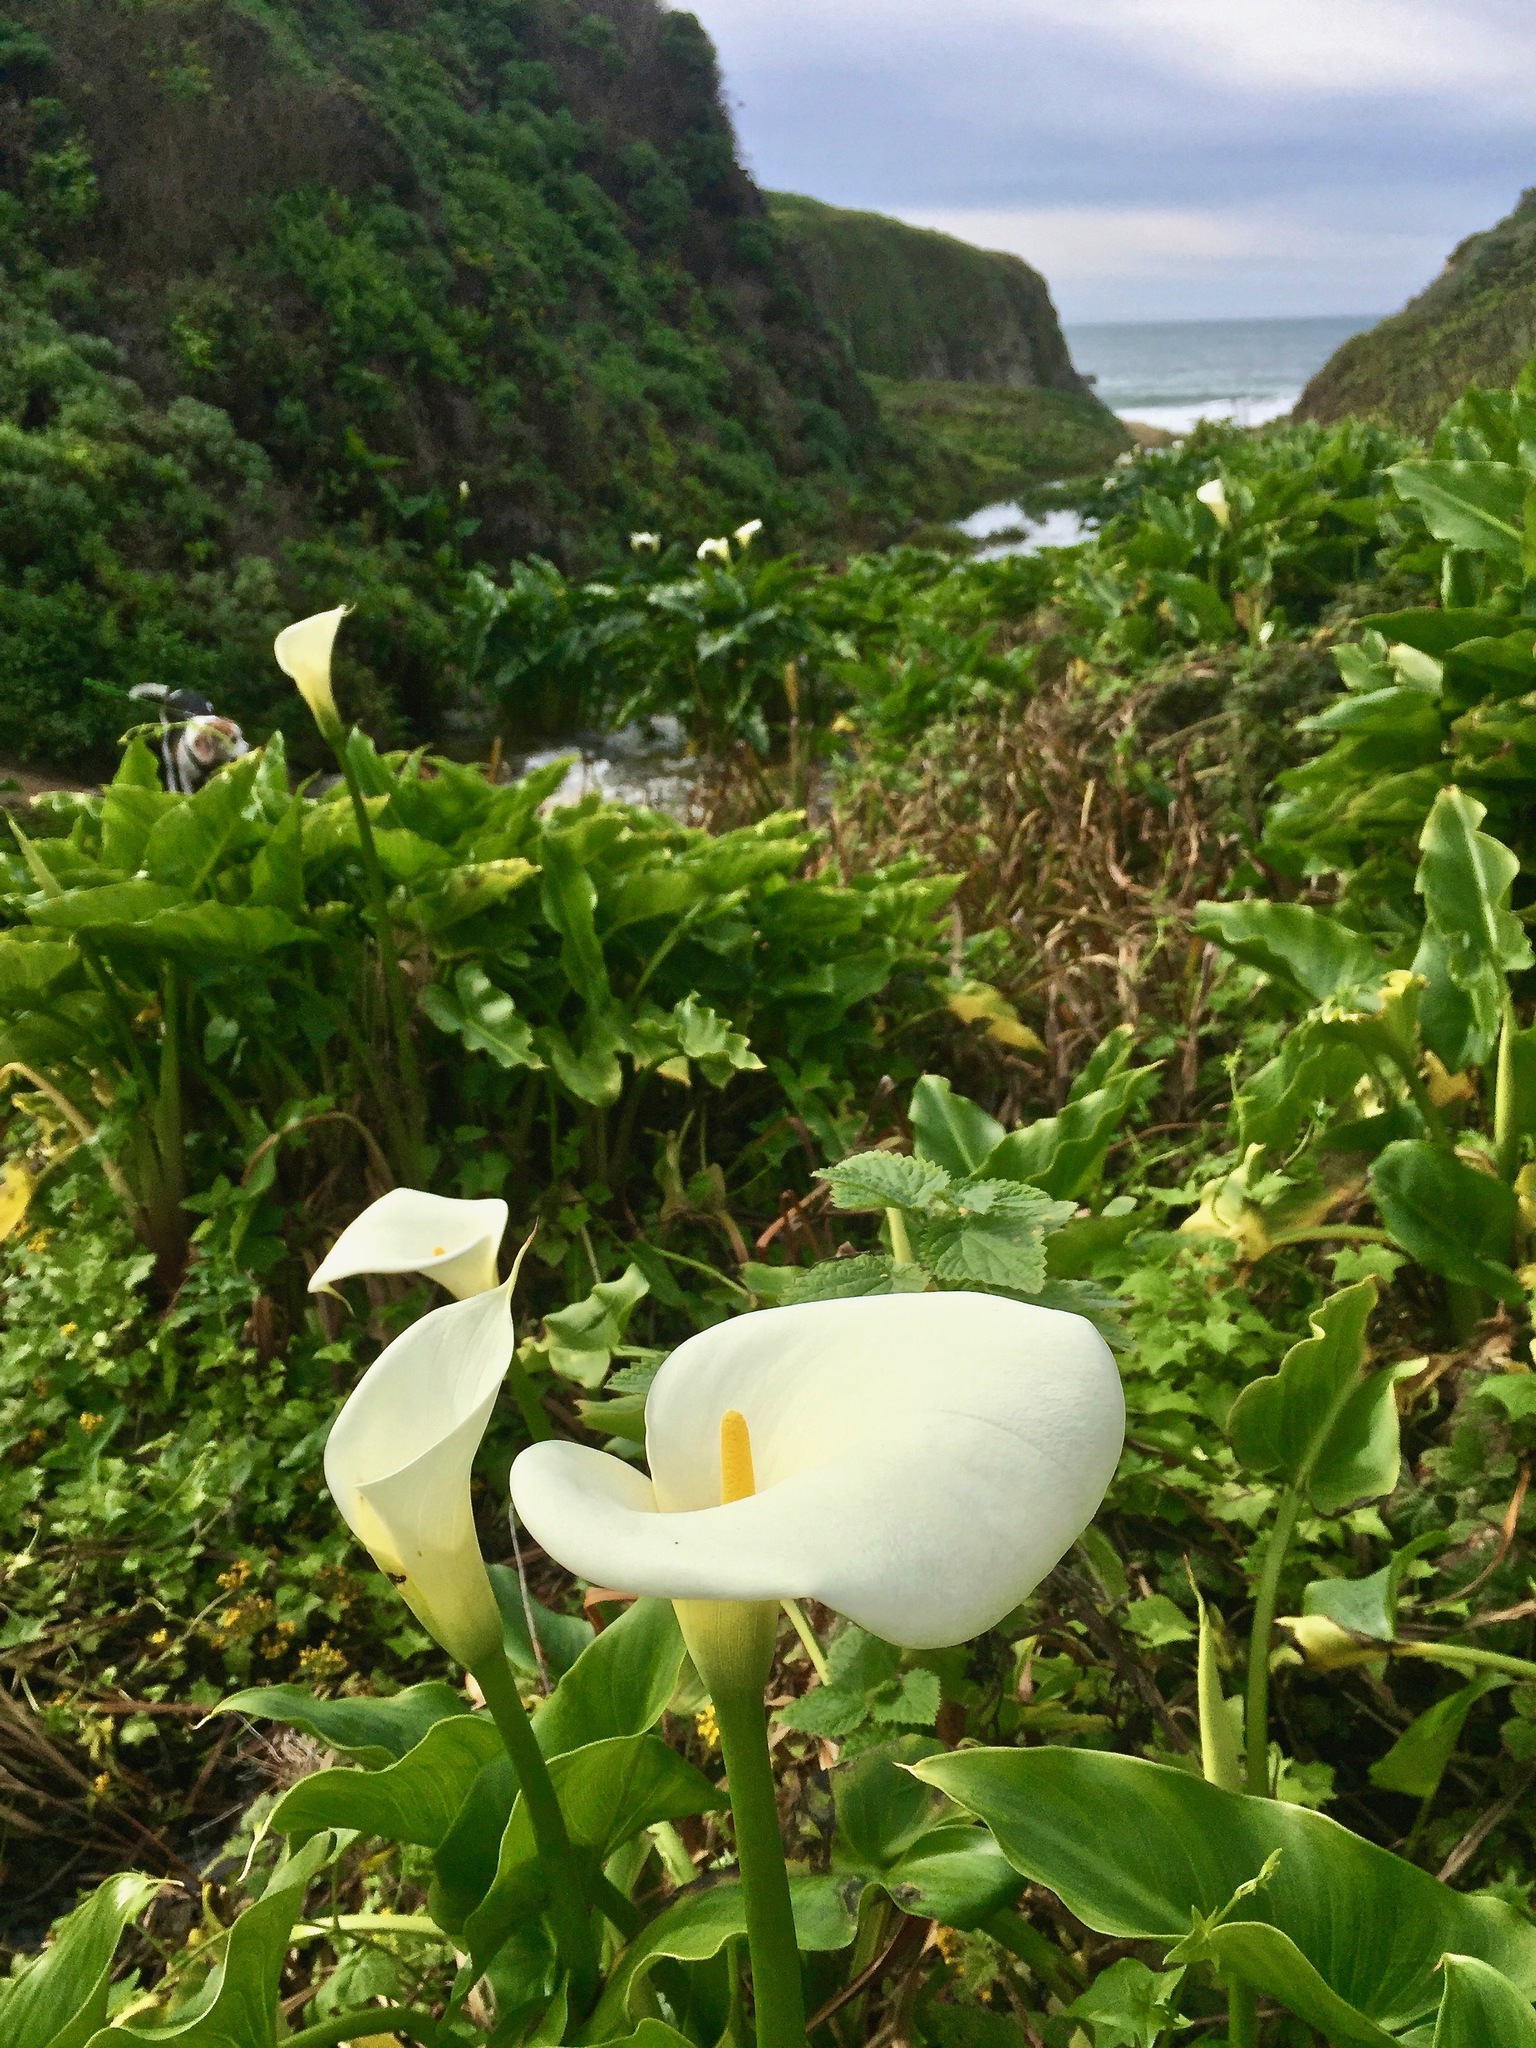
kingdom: Plantae
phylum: Tracheophyta
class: Liliopsida
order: Alismatales
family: Araceae
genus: Zantedeschia
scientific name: Zantedeschia aethiopica
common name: Altar-lily
